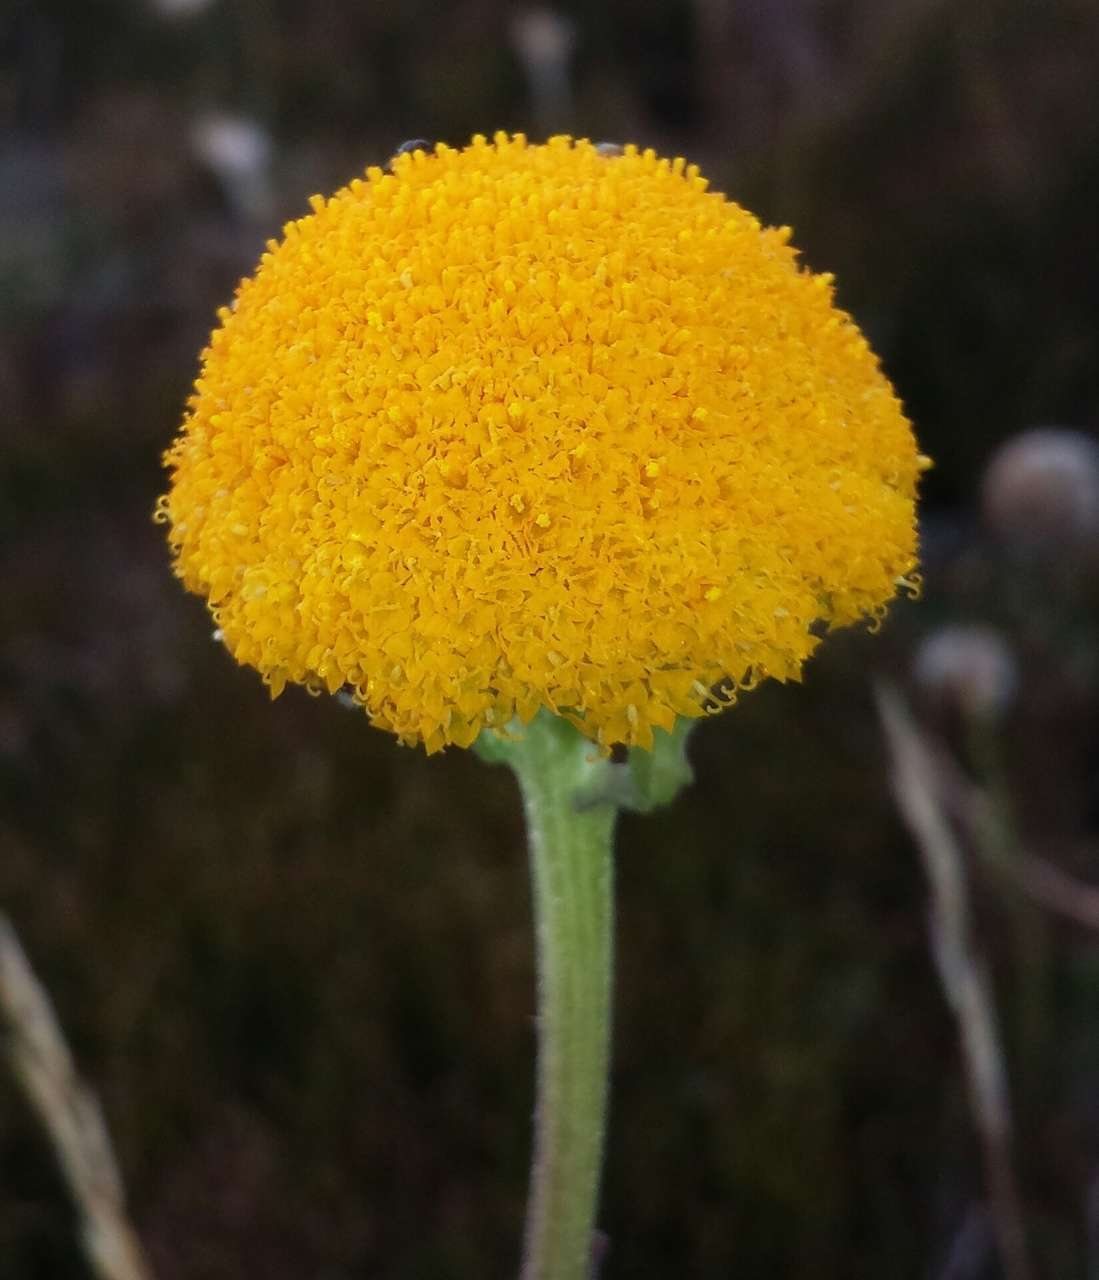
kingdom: Plantae
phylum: Tracheophyta
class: Magnoliopsida
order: Asterales
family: Asteraceae
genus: Craspedia
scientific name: Craspedia aurantia
